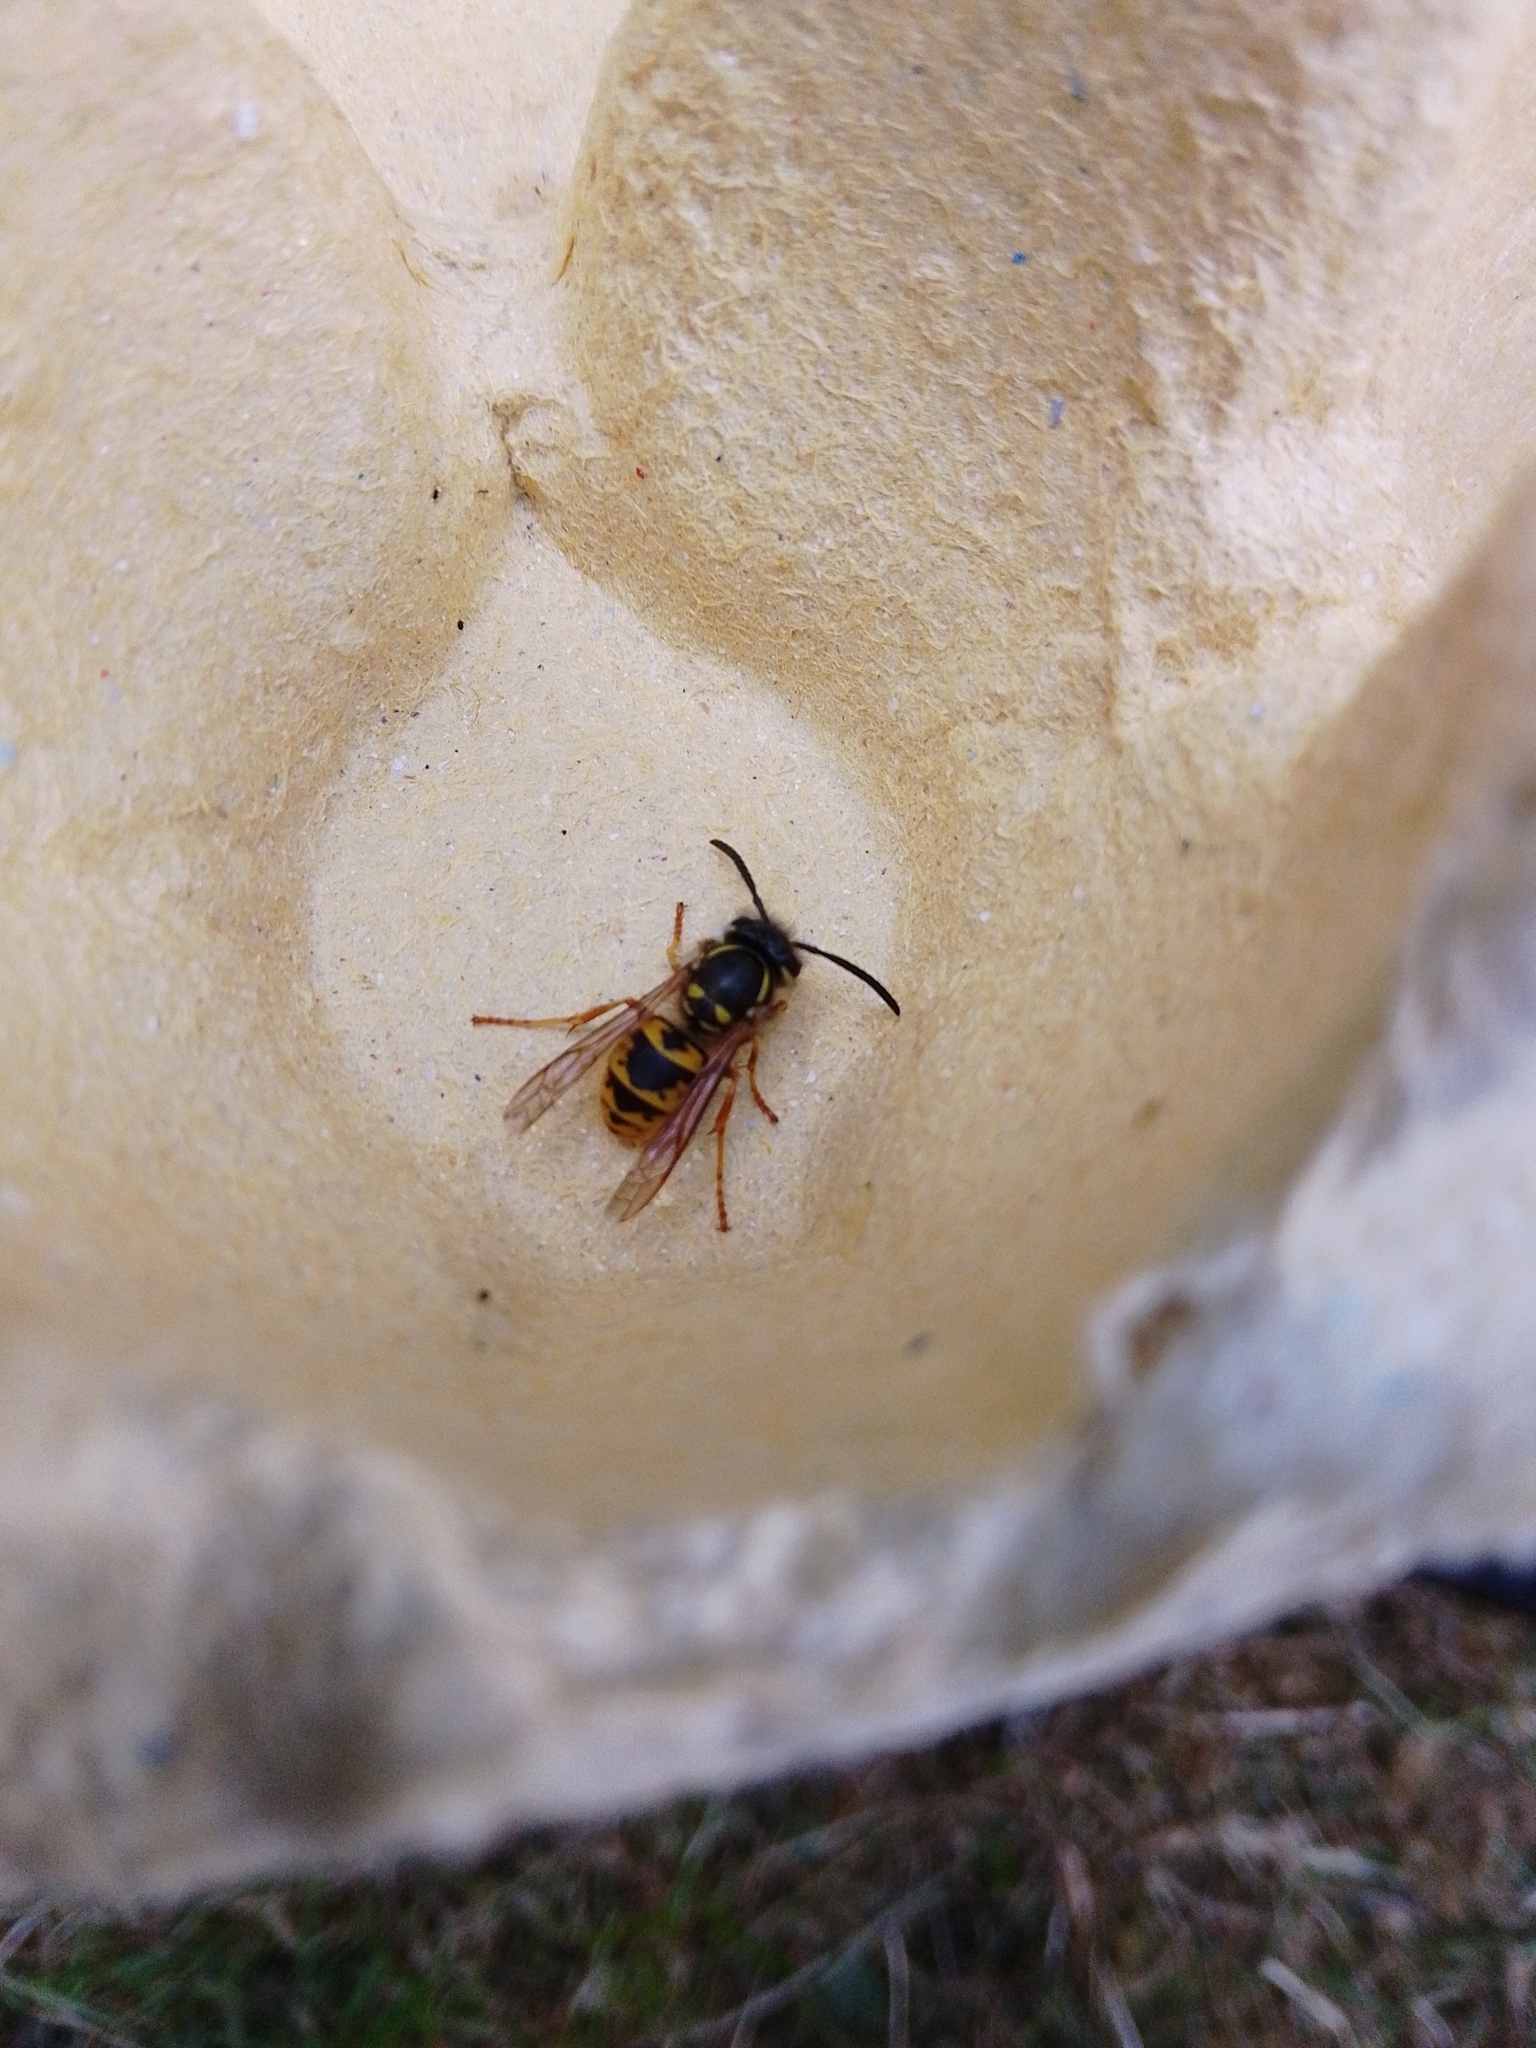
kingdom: Animalia
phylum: Arthropoda
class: Insecta
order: Hymenoptera
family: Vespidae
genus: Vespula
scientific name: Vespula vulgaris
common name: Common wasp
